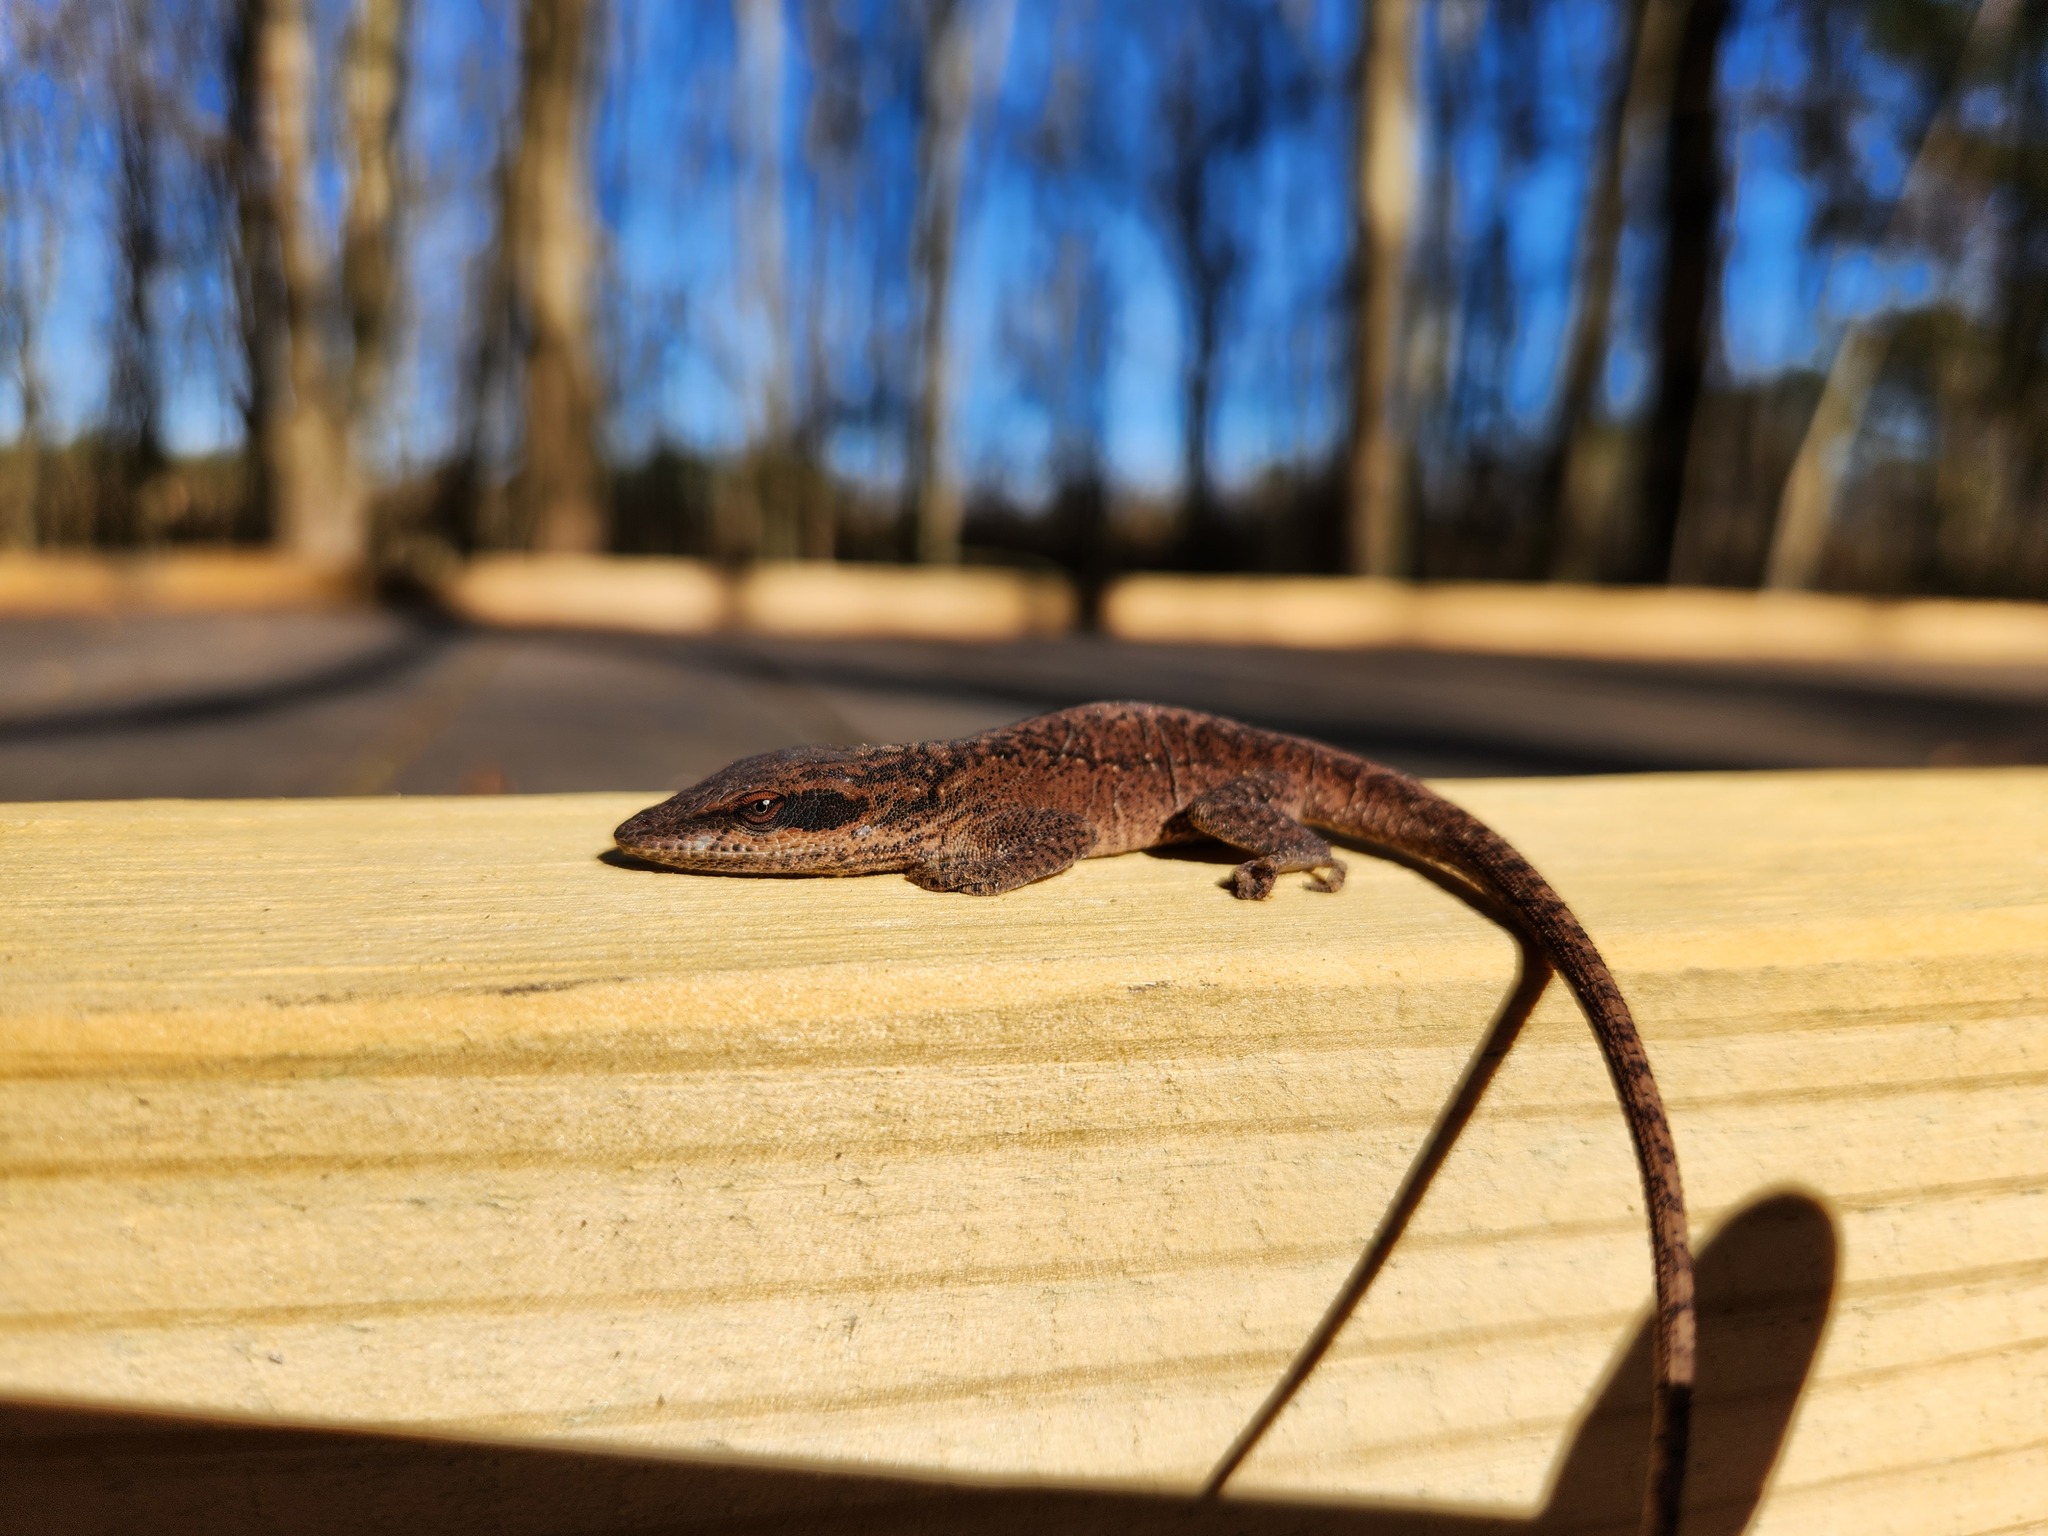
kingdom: Animalia
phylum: Chordata
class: Squamata
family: Dactyloidae
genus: Anolis
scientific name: Anolis carolinensis
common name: Green anole
